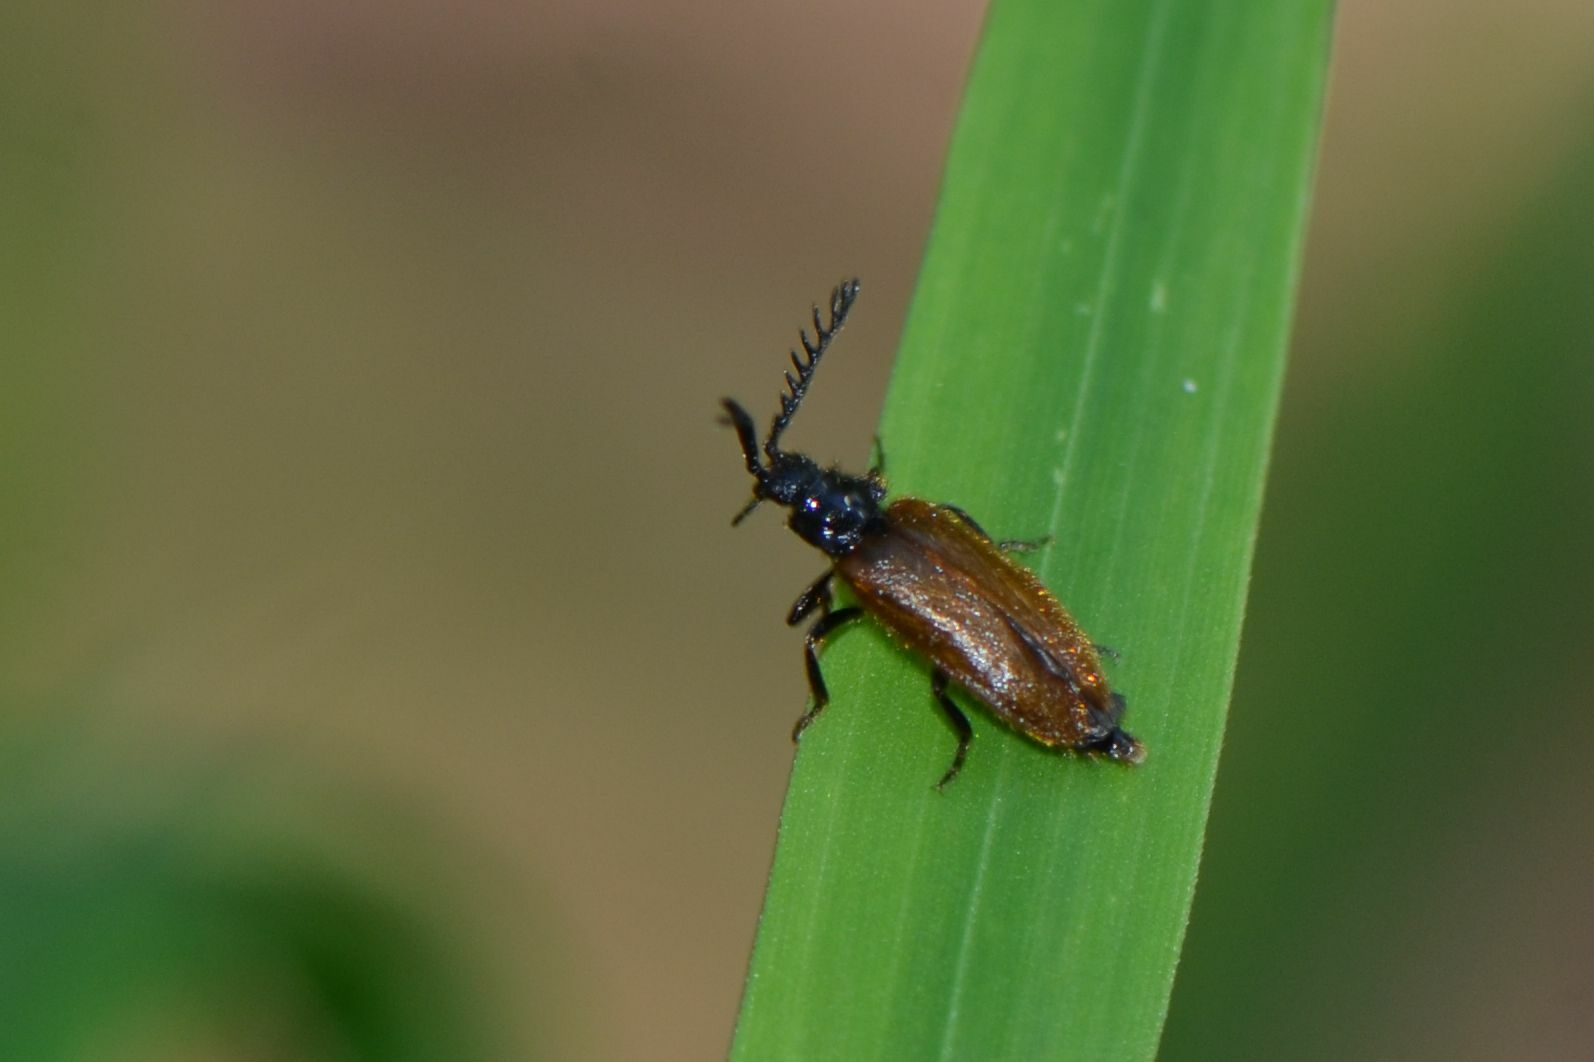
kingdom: Animalia
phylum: Arthropoda
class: Insecta
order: Coleoptera
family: Drilidae
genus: Drilus
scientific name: Drilus flavescens
